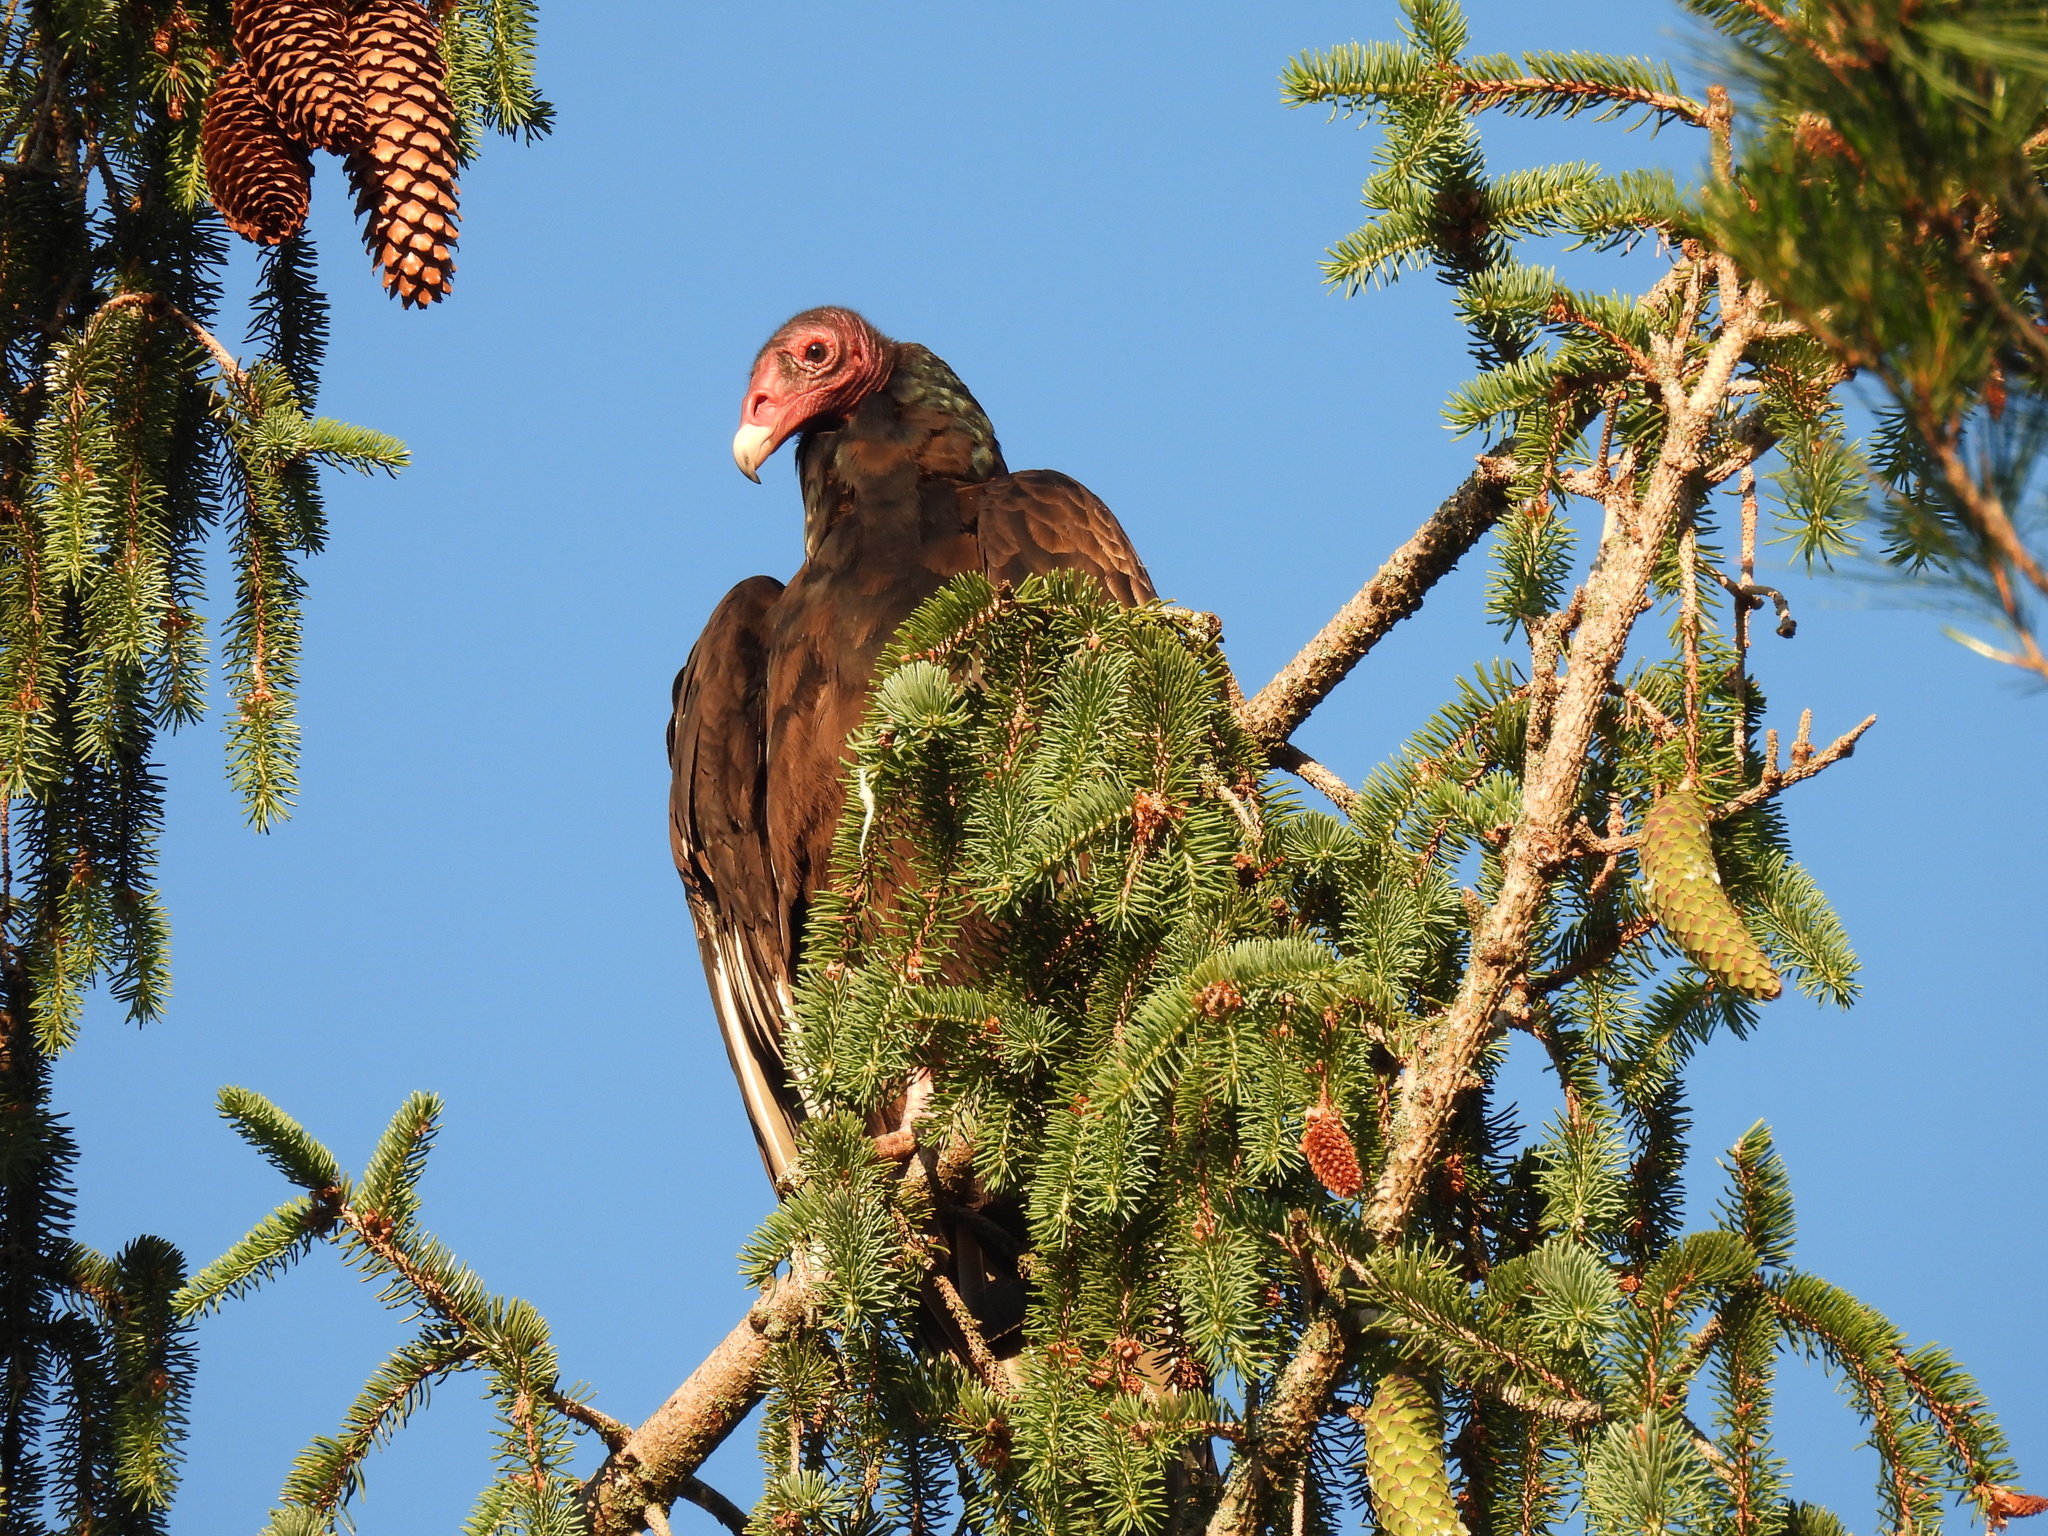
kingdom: Animalia
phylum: Chordata
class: Aves
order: Accipitriformes
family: Cathartidae
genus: Cathartes
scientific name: Cathartes aura
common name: Turkey vulture
